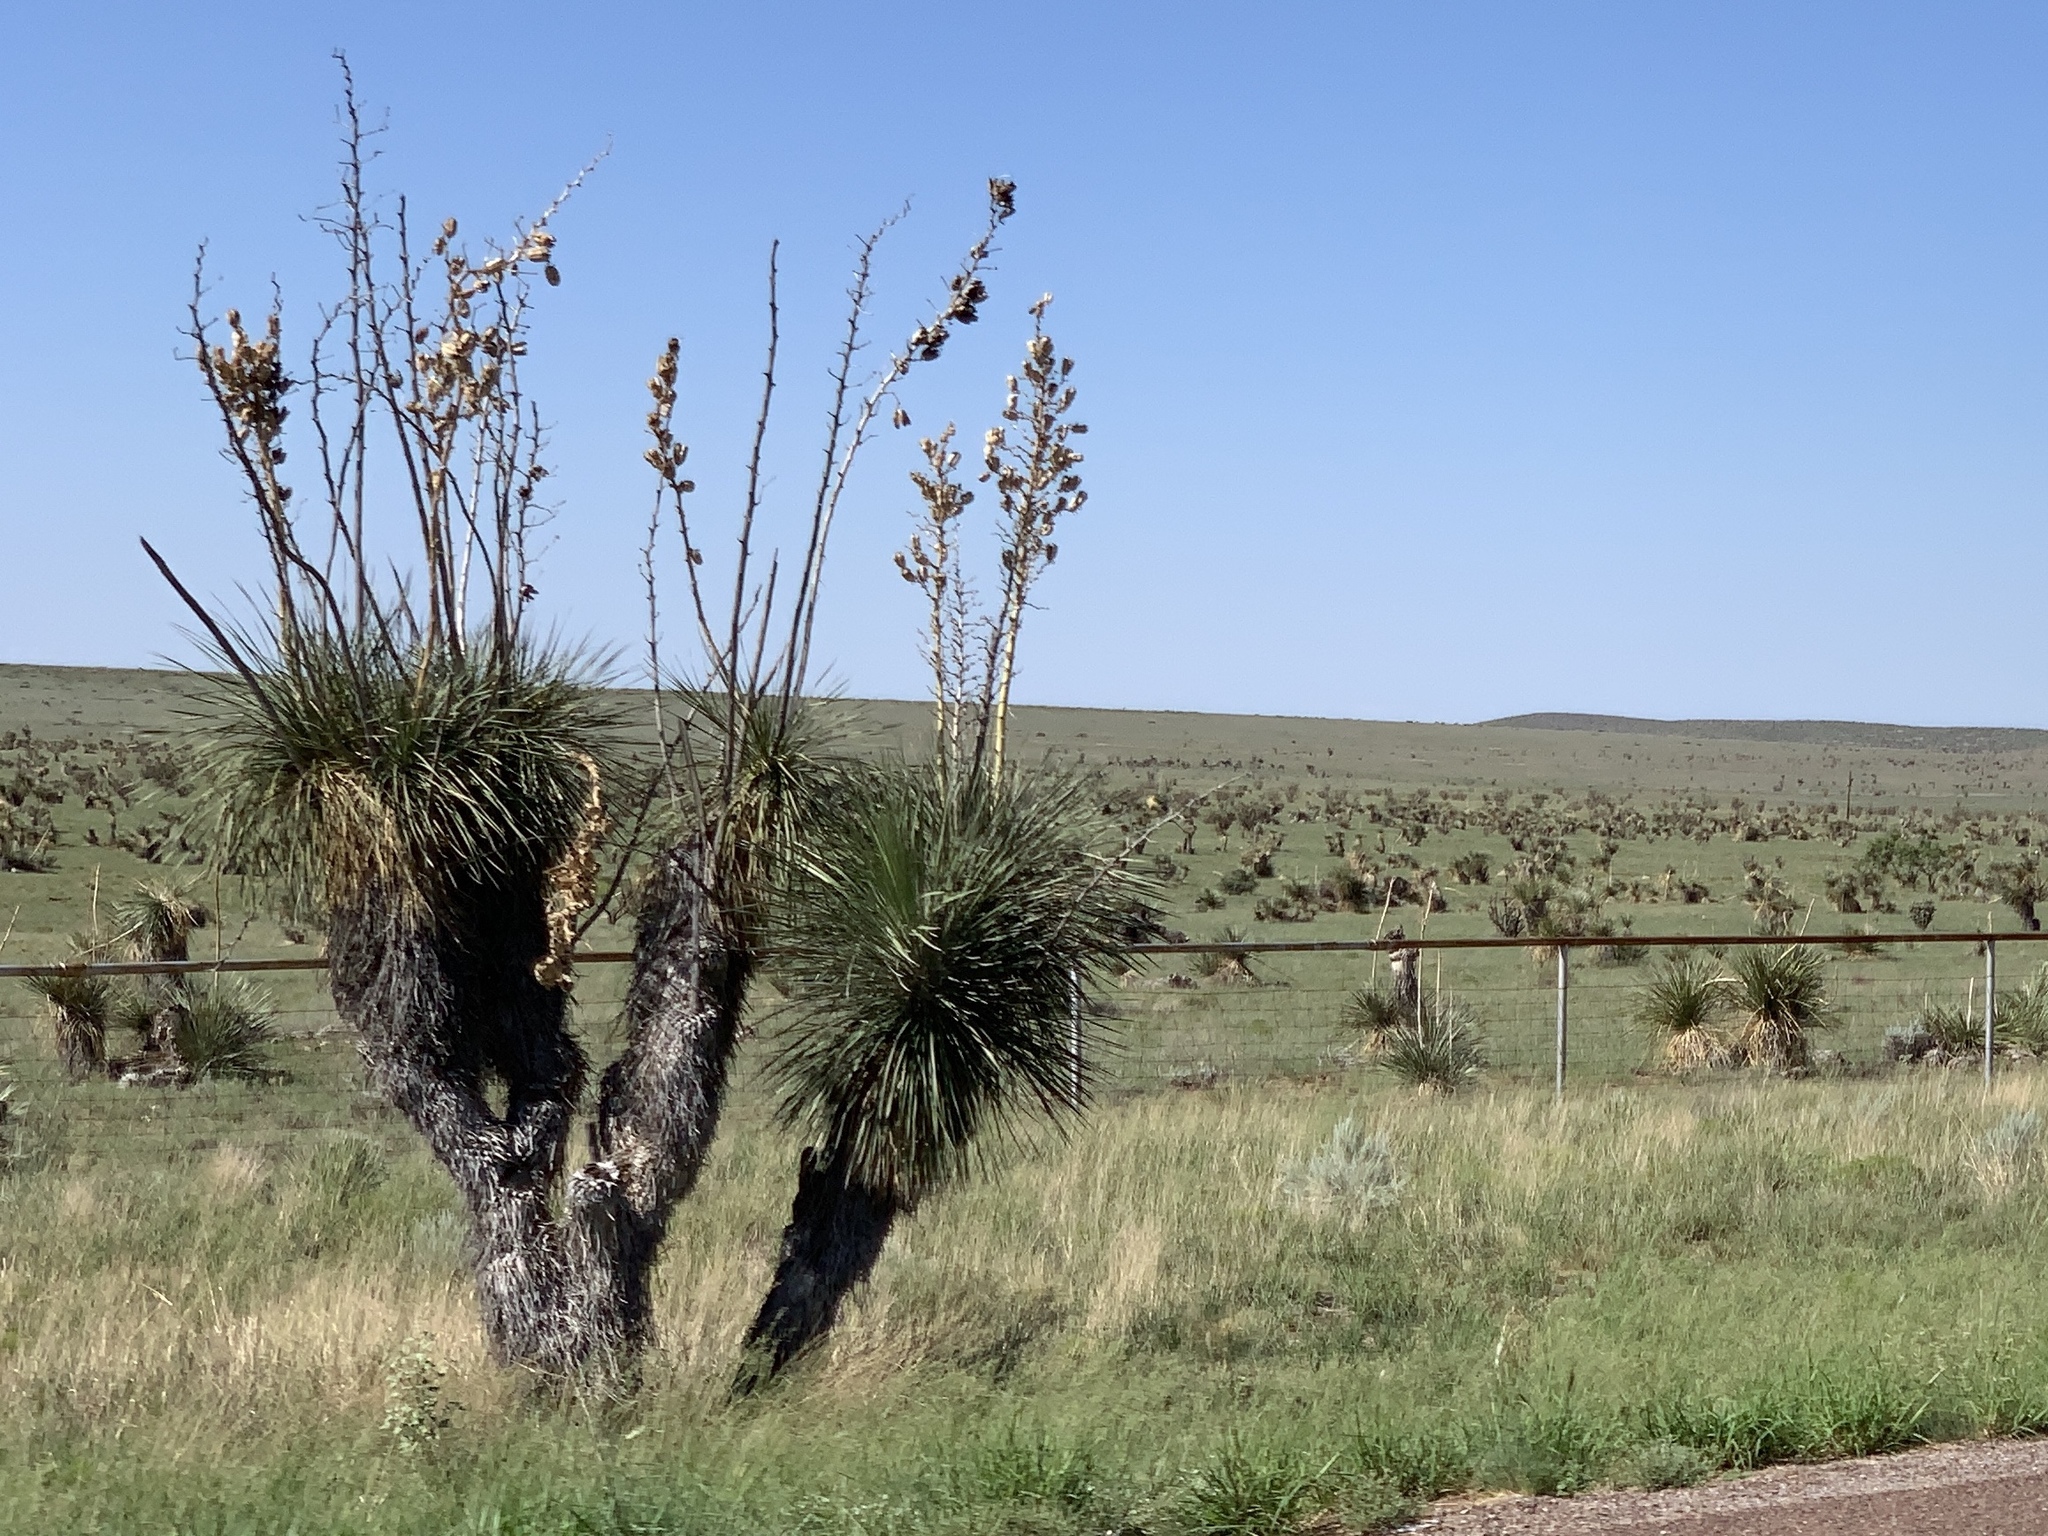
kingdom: Plantae
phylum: Tracheophyta
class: Liliopsida
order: Asparagales
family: Asparagaceae
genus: Yucca
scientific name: Yucca elata
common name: Palmella
